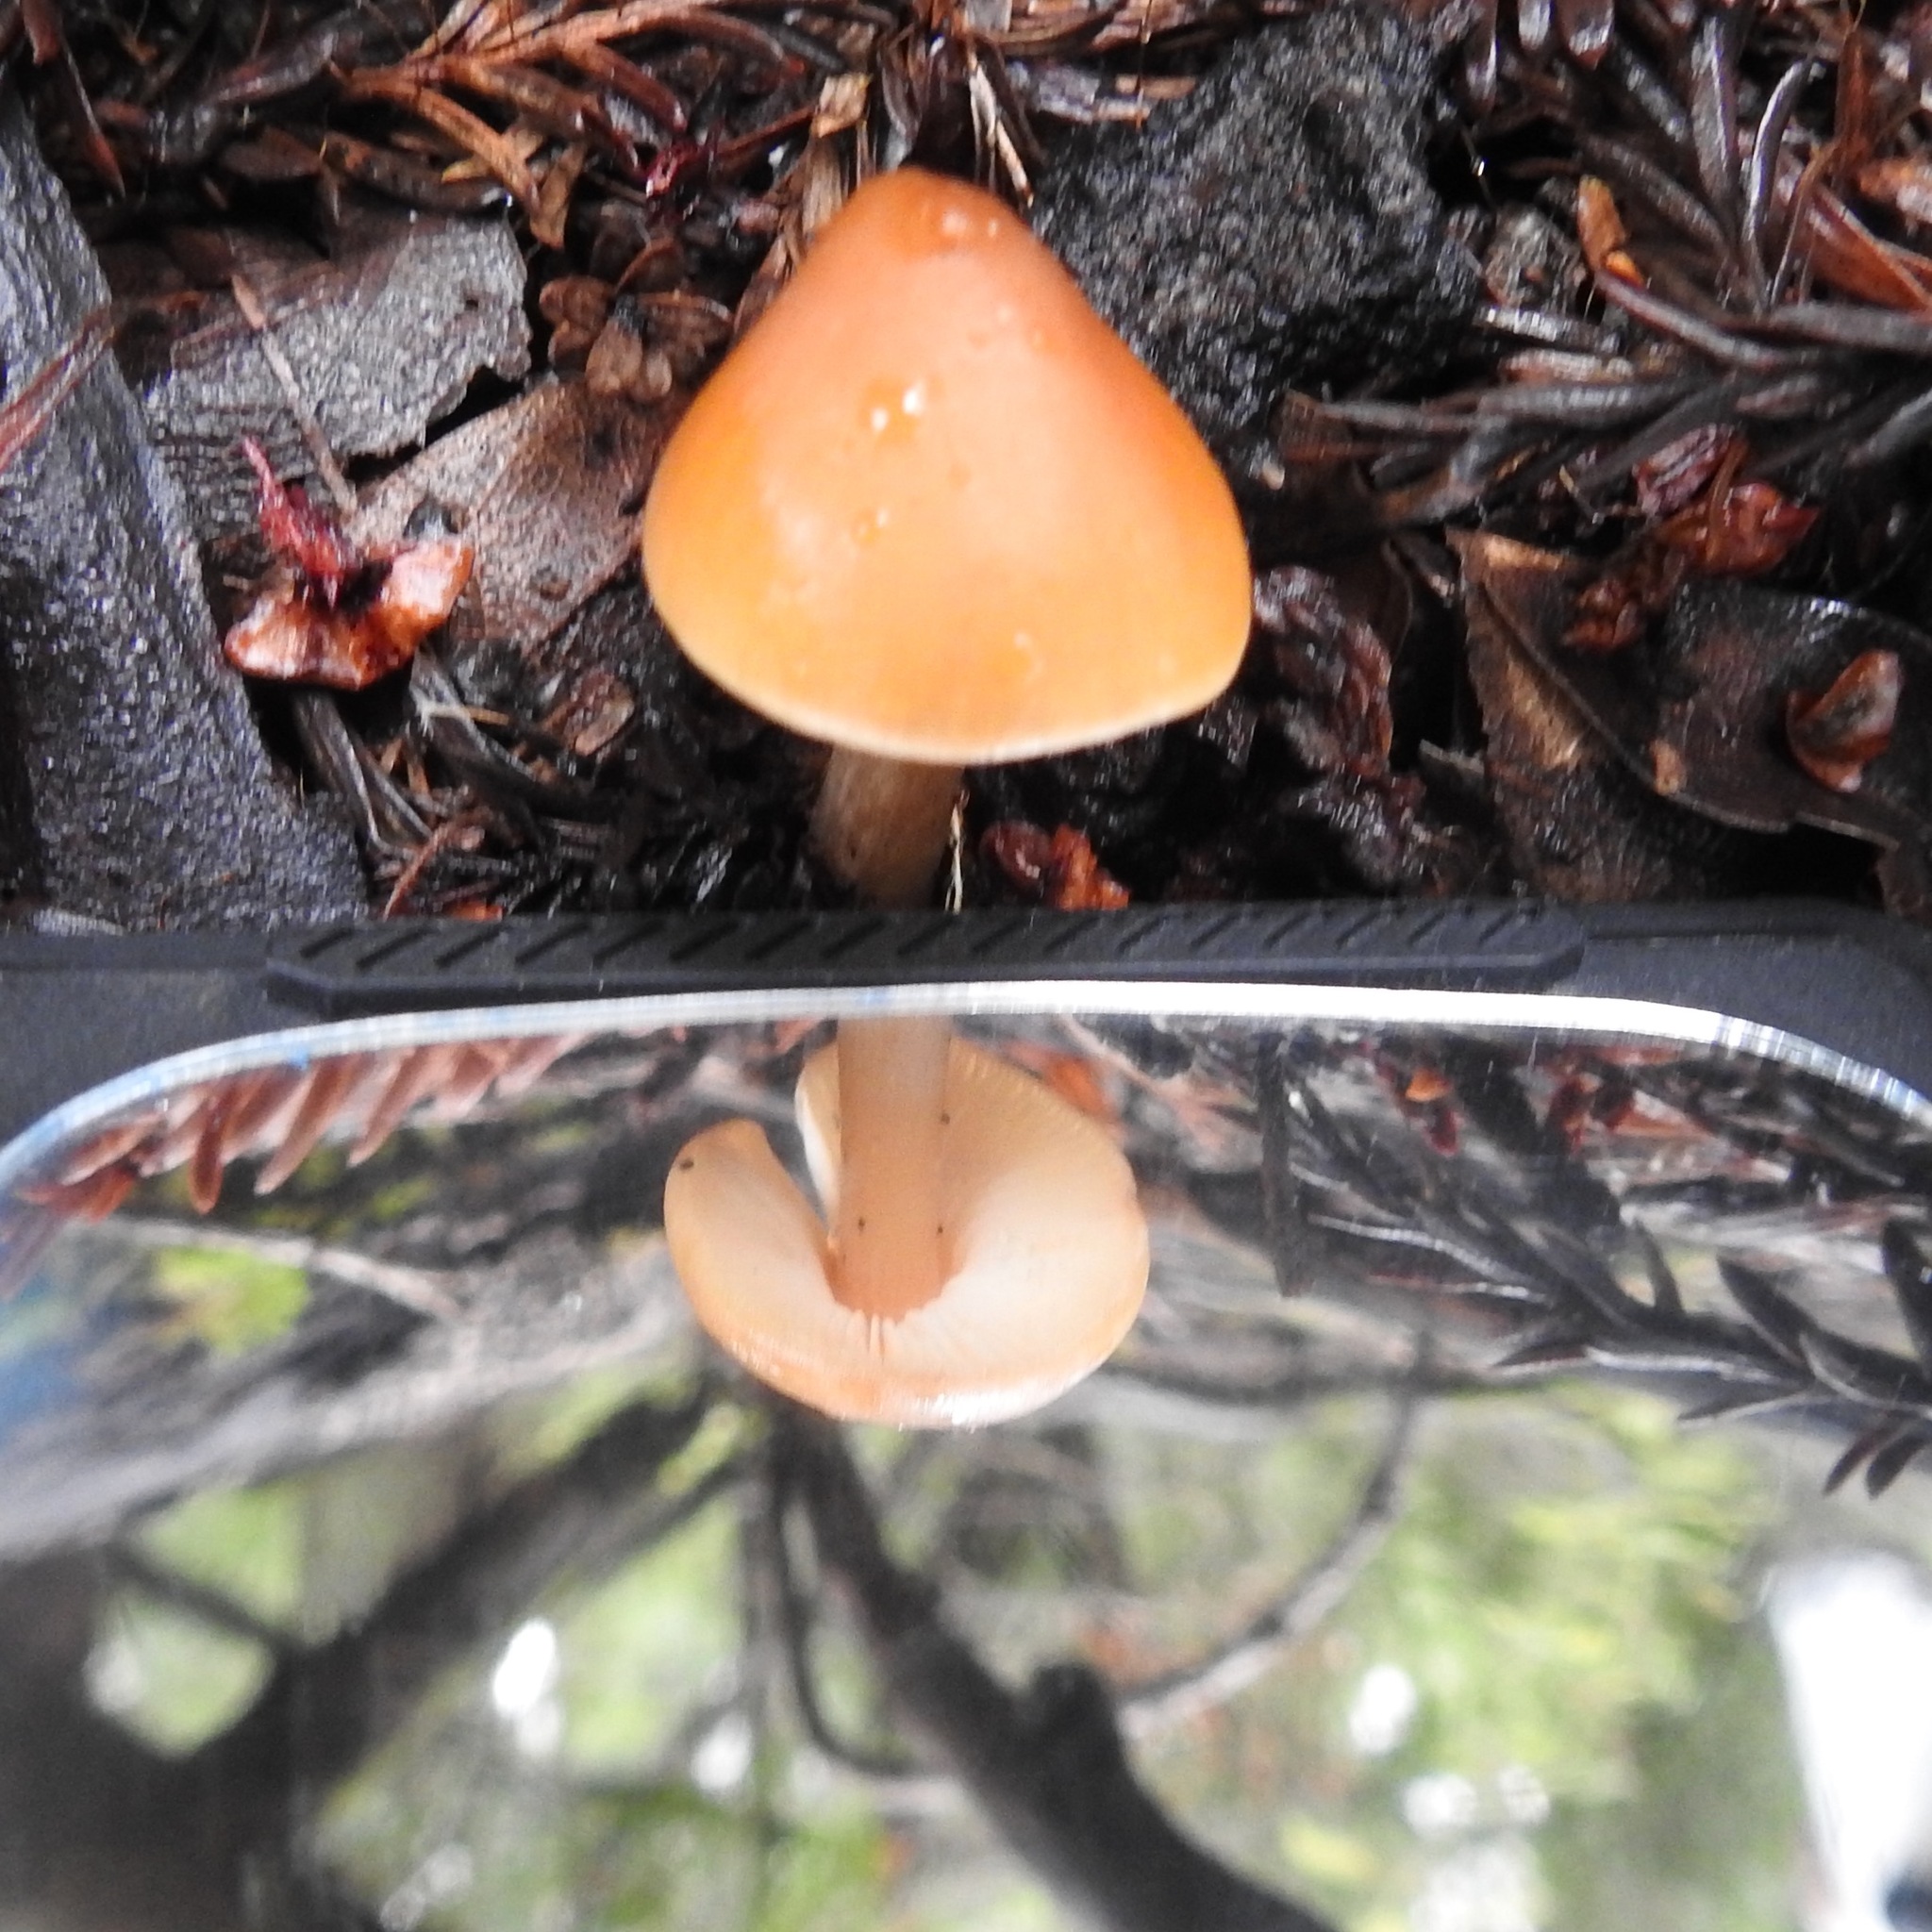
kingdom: Fungi
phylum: Basidiomycota
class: Agaricomycetes
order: Agaricales
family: Tricholomataceae
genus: Caulorhiza
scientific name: Caulorhiza umbonata
